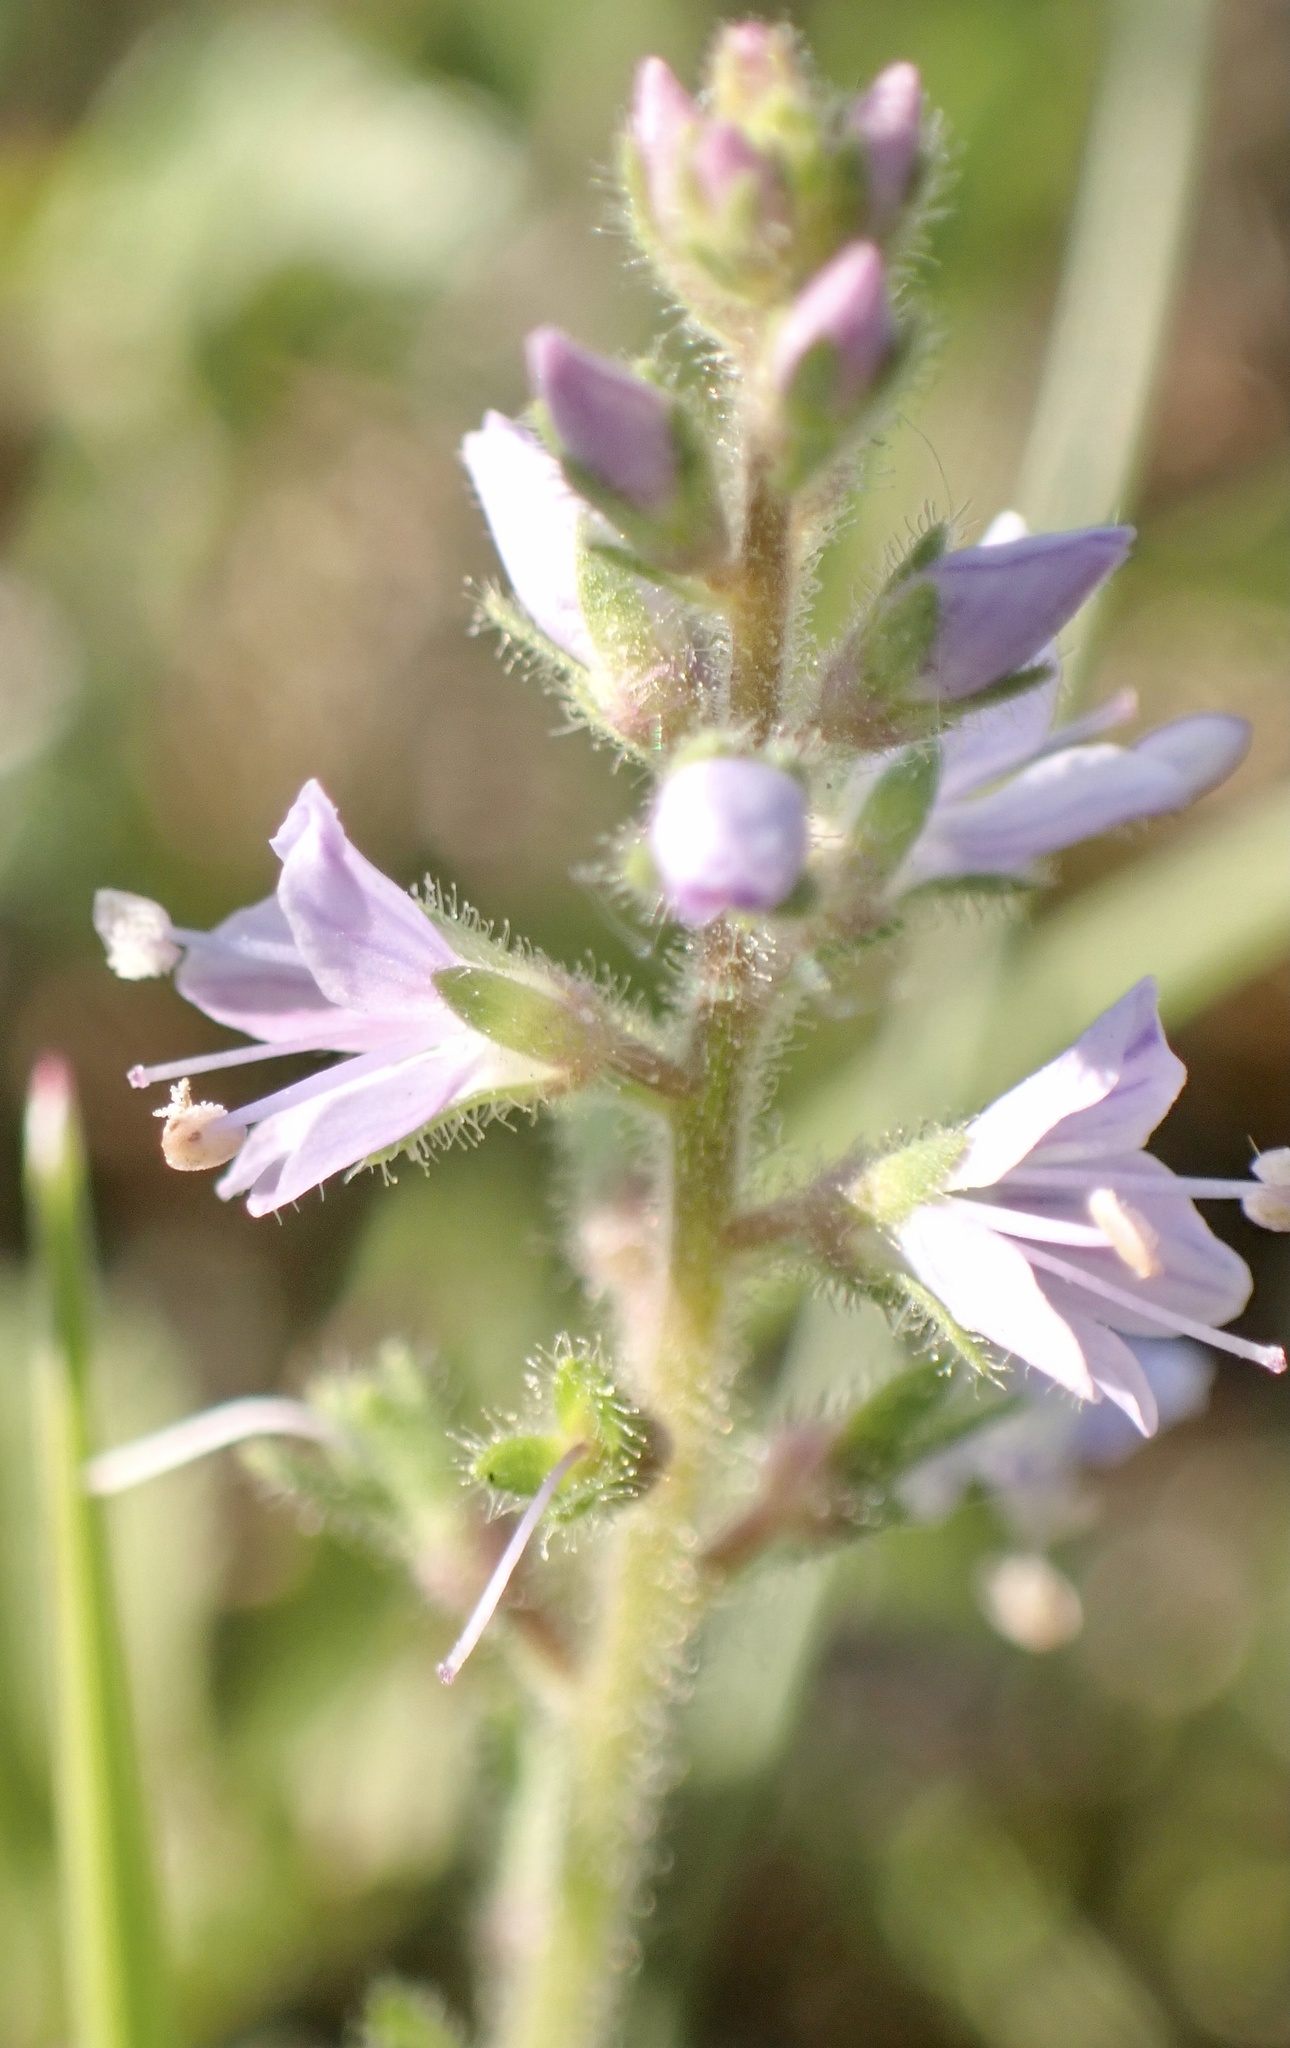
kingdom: Plantae
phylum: Tracheophyta
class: Magnoliopsida
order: Lamiales
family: Plantaginaceae
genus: Veronica
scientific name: Veronica officinalis
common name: Common speedwell
